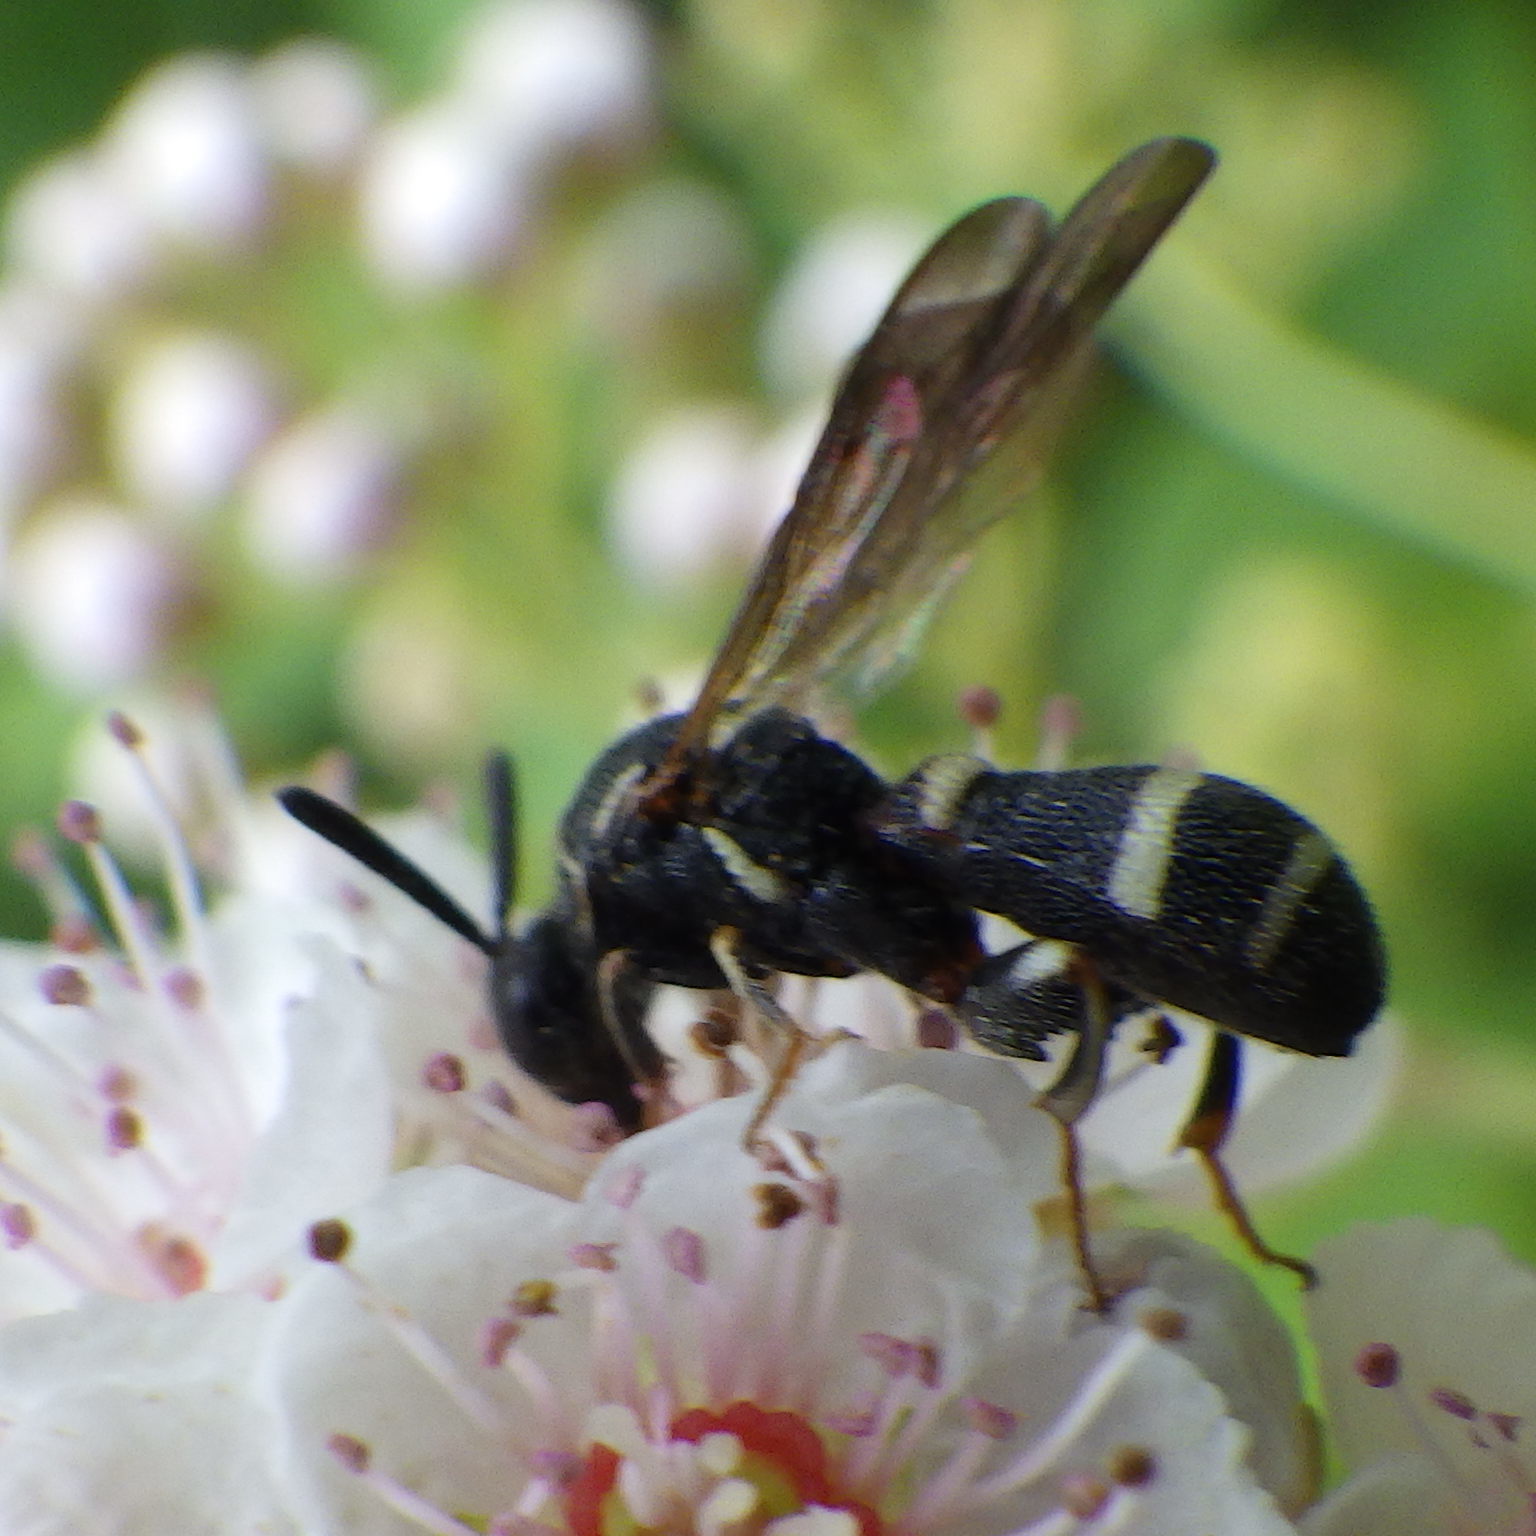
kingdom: Animalia
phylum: Arthropoda
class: Insecta
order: Hymenoptera
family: Leucospidae
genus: Leucospis
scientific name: Leucospis affinis
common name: Wasp
